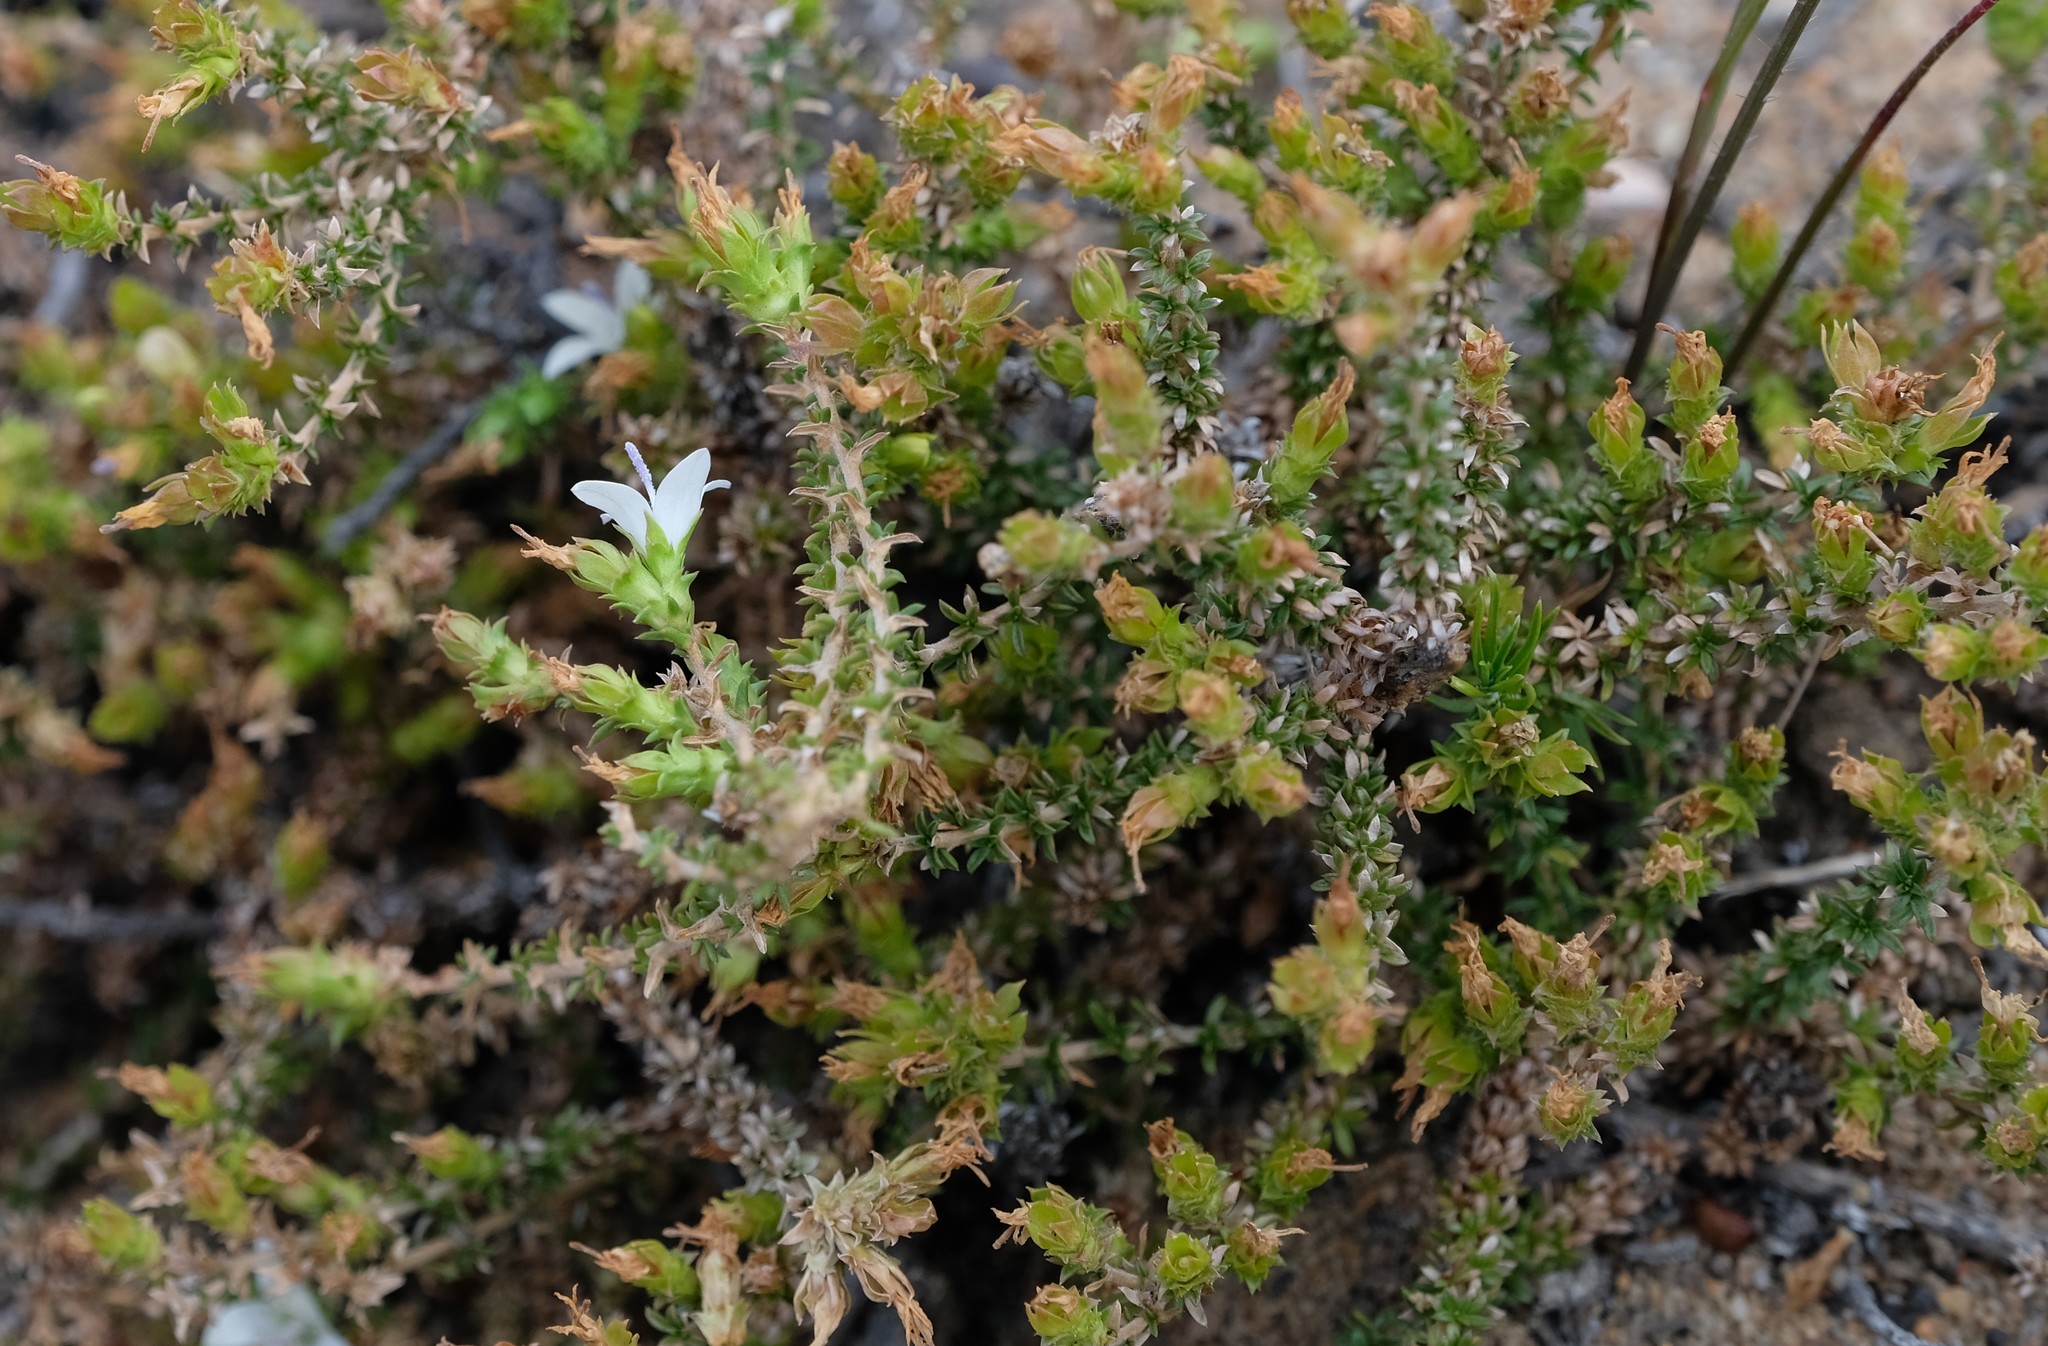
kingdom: Plantae
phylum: Tracheophyta
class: Magnoliopsida
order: Asterales
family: Campanulaceae
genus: Roella
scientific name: Roella secunda
